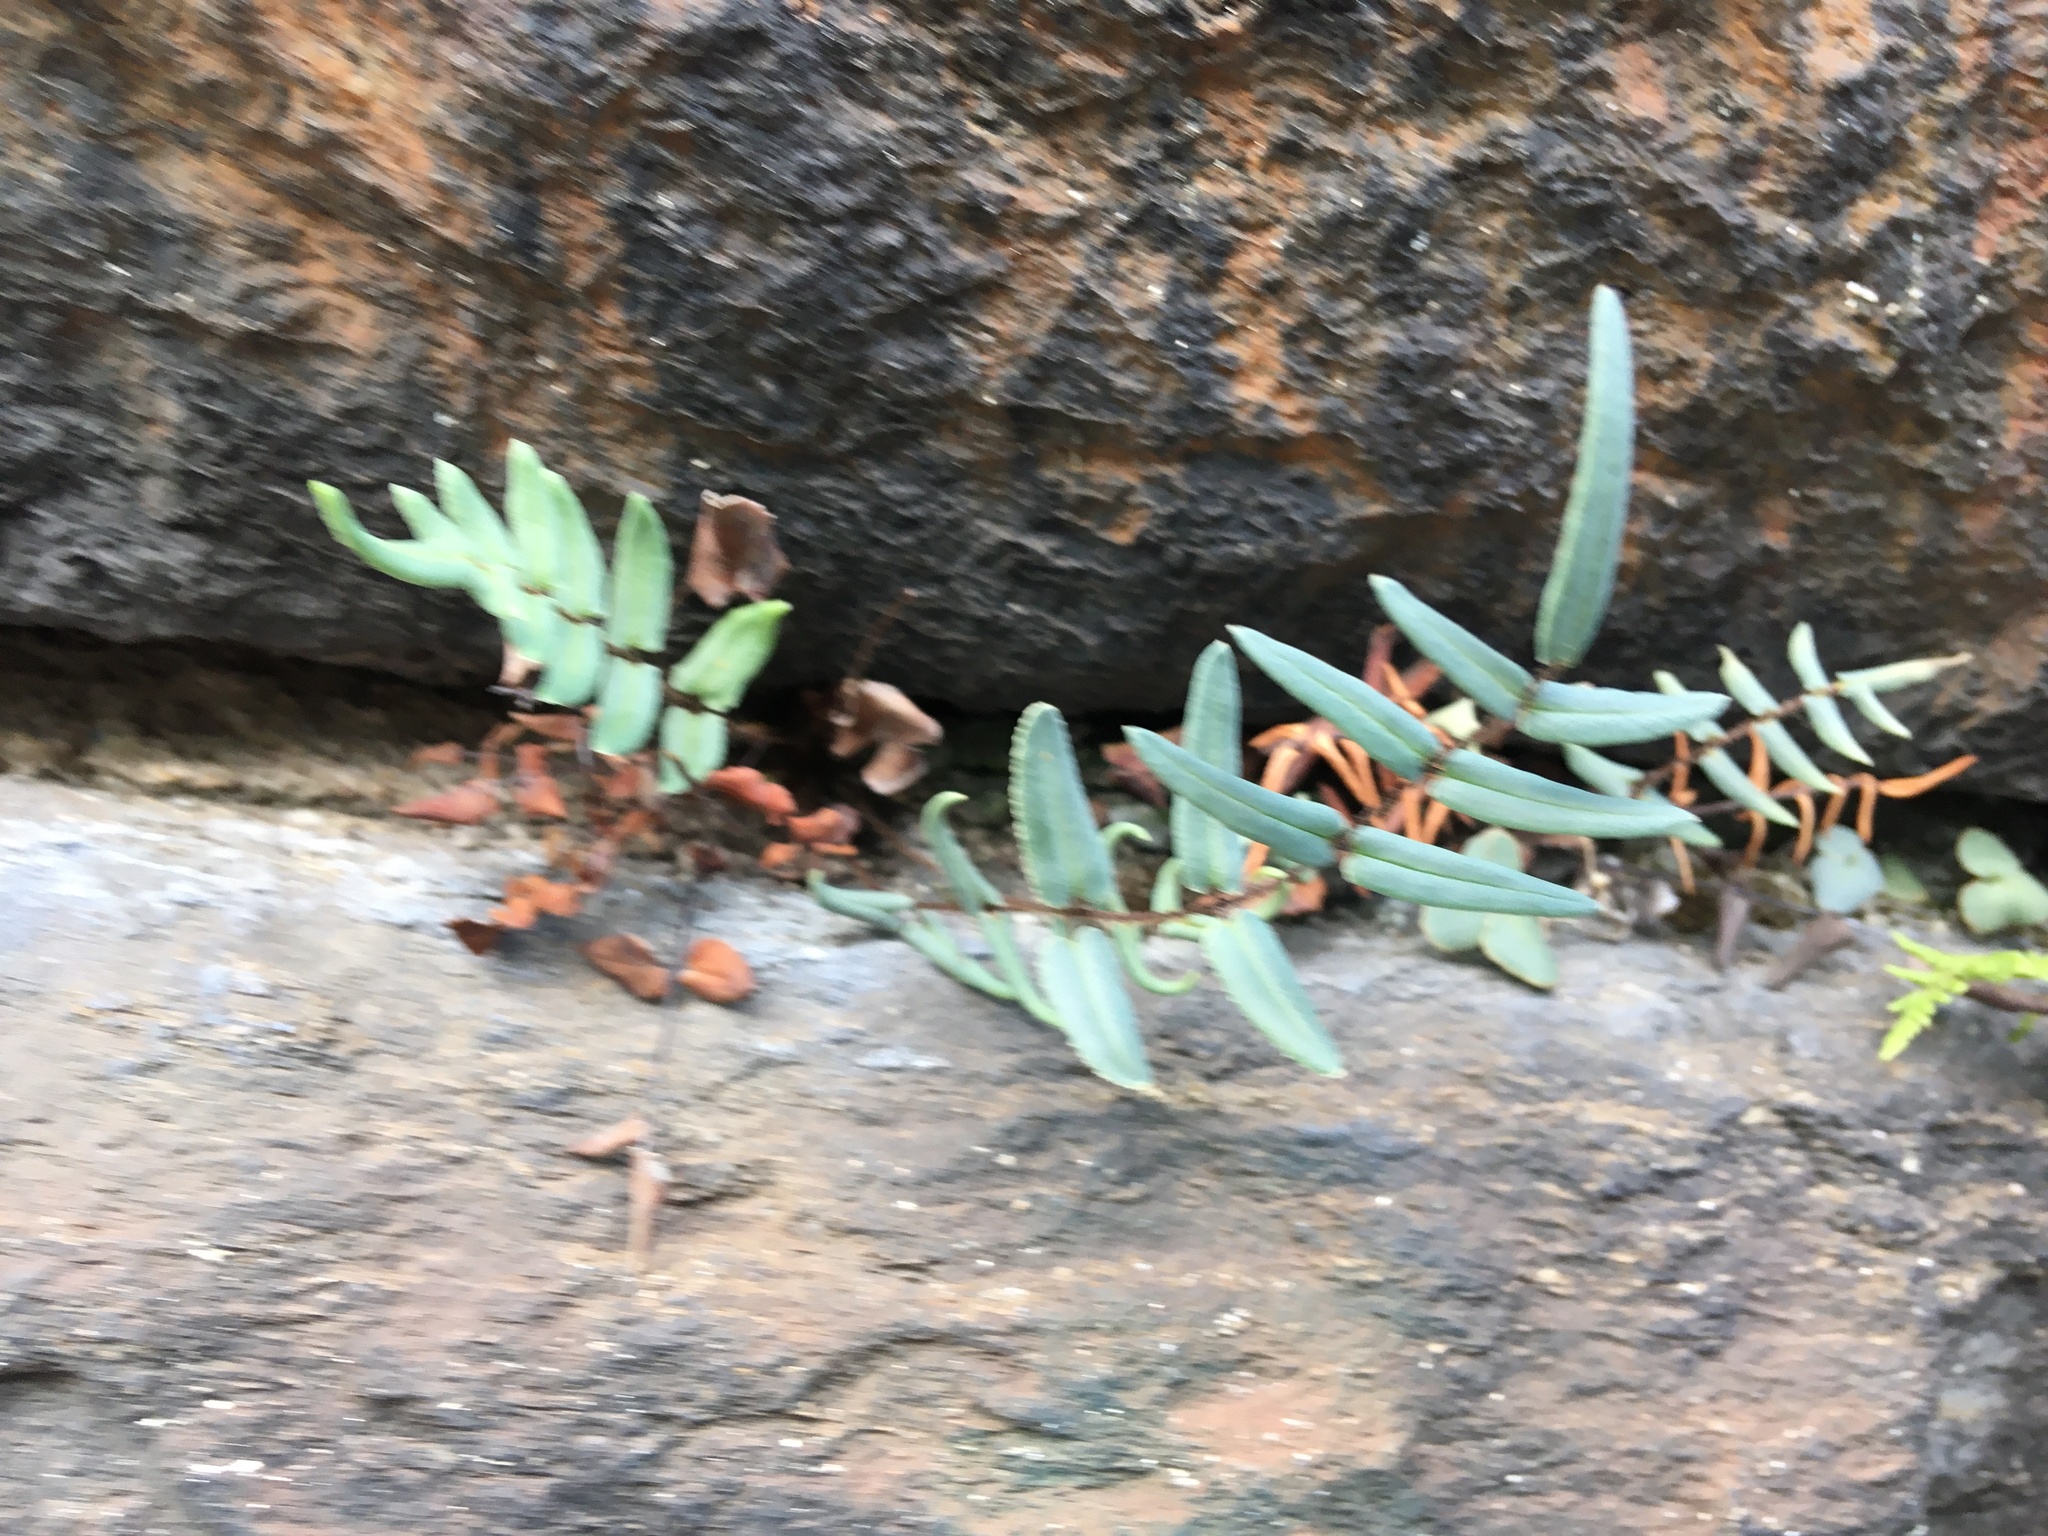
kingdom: Plantae
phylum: Tracheophyta
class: Polypodiopsida
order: Polypodiales
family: Pteridaceae
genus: Pellaea
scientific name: Pellaea atropurpurea
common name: Hairy cliffbrake
